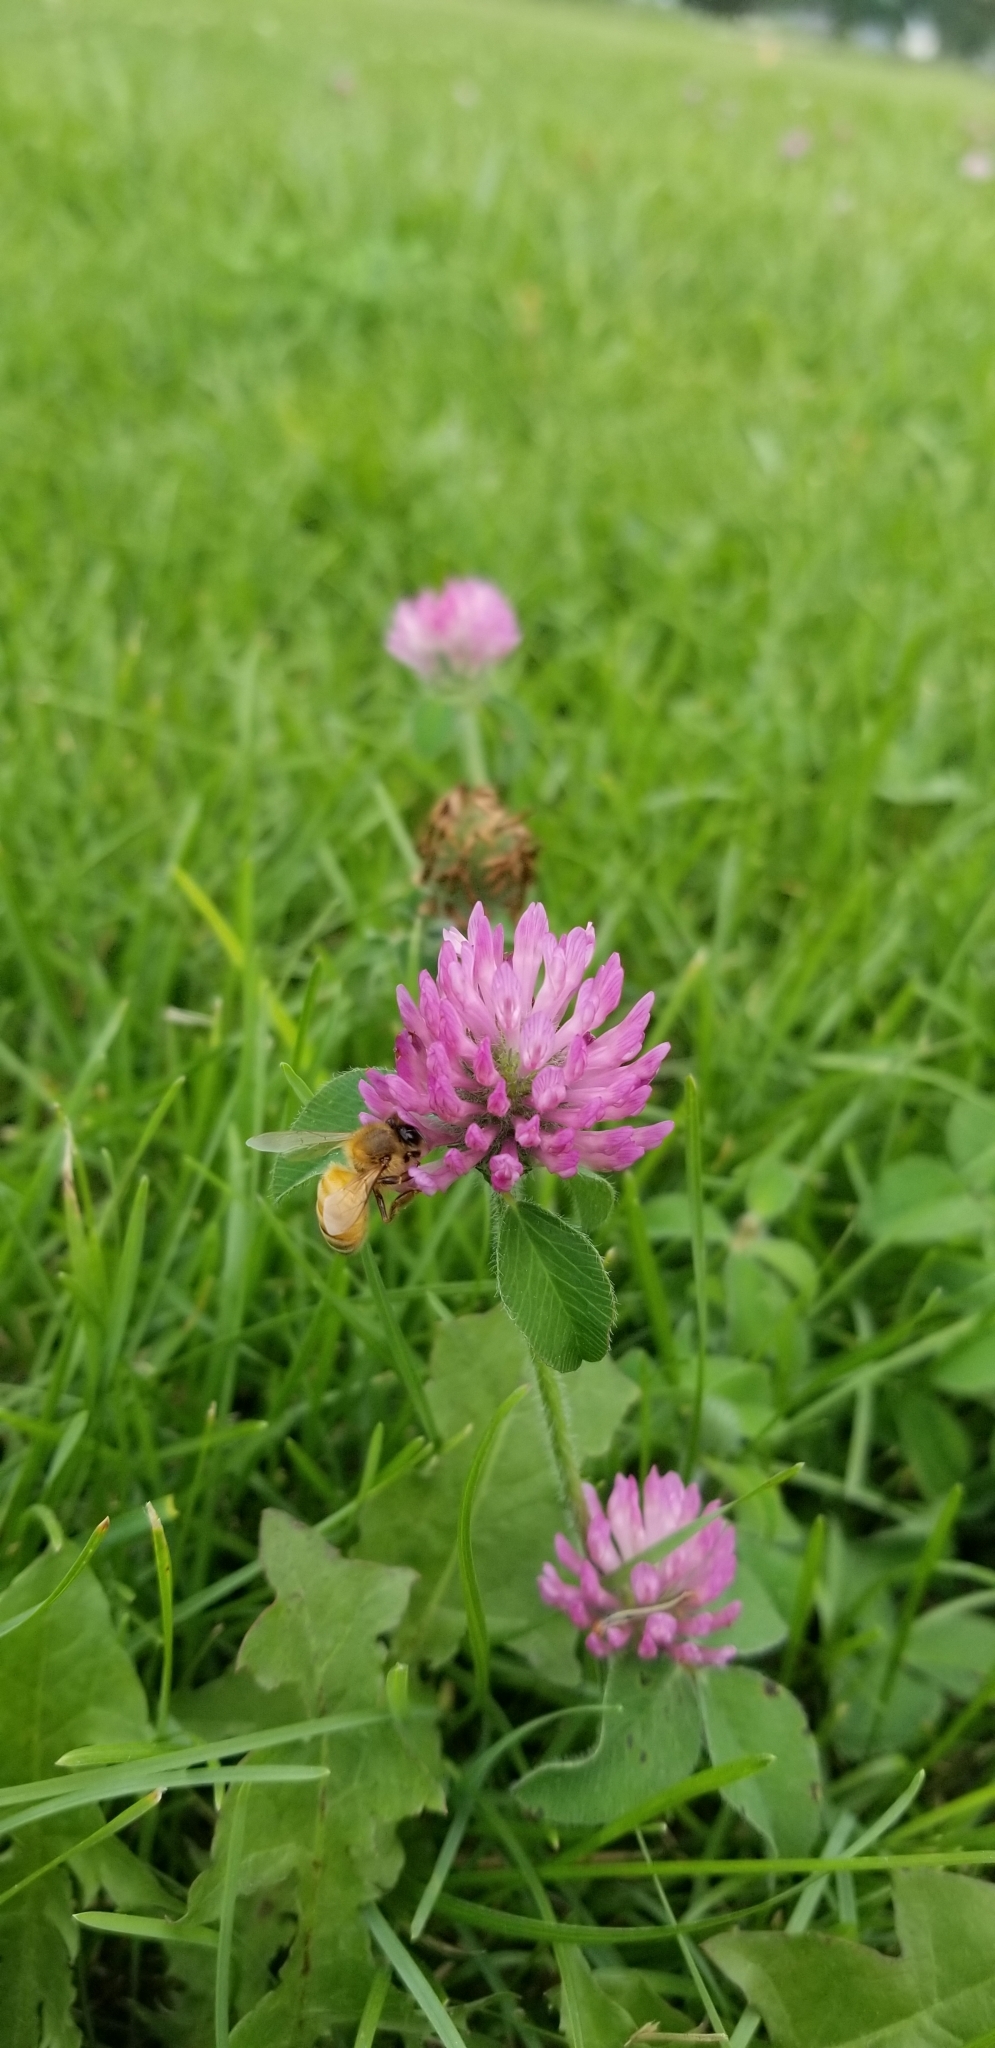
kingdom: Plantae
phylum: Tracheophyta
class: Magnoliopsida
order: Fabales
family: Fabaceae
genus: Trifolium
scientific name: Trifolium pratense
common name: Red clover
